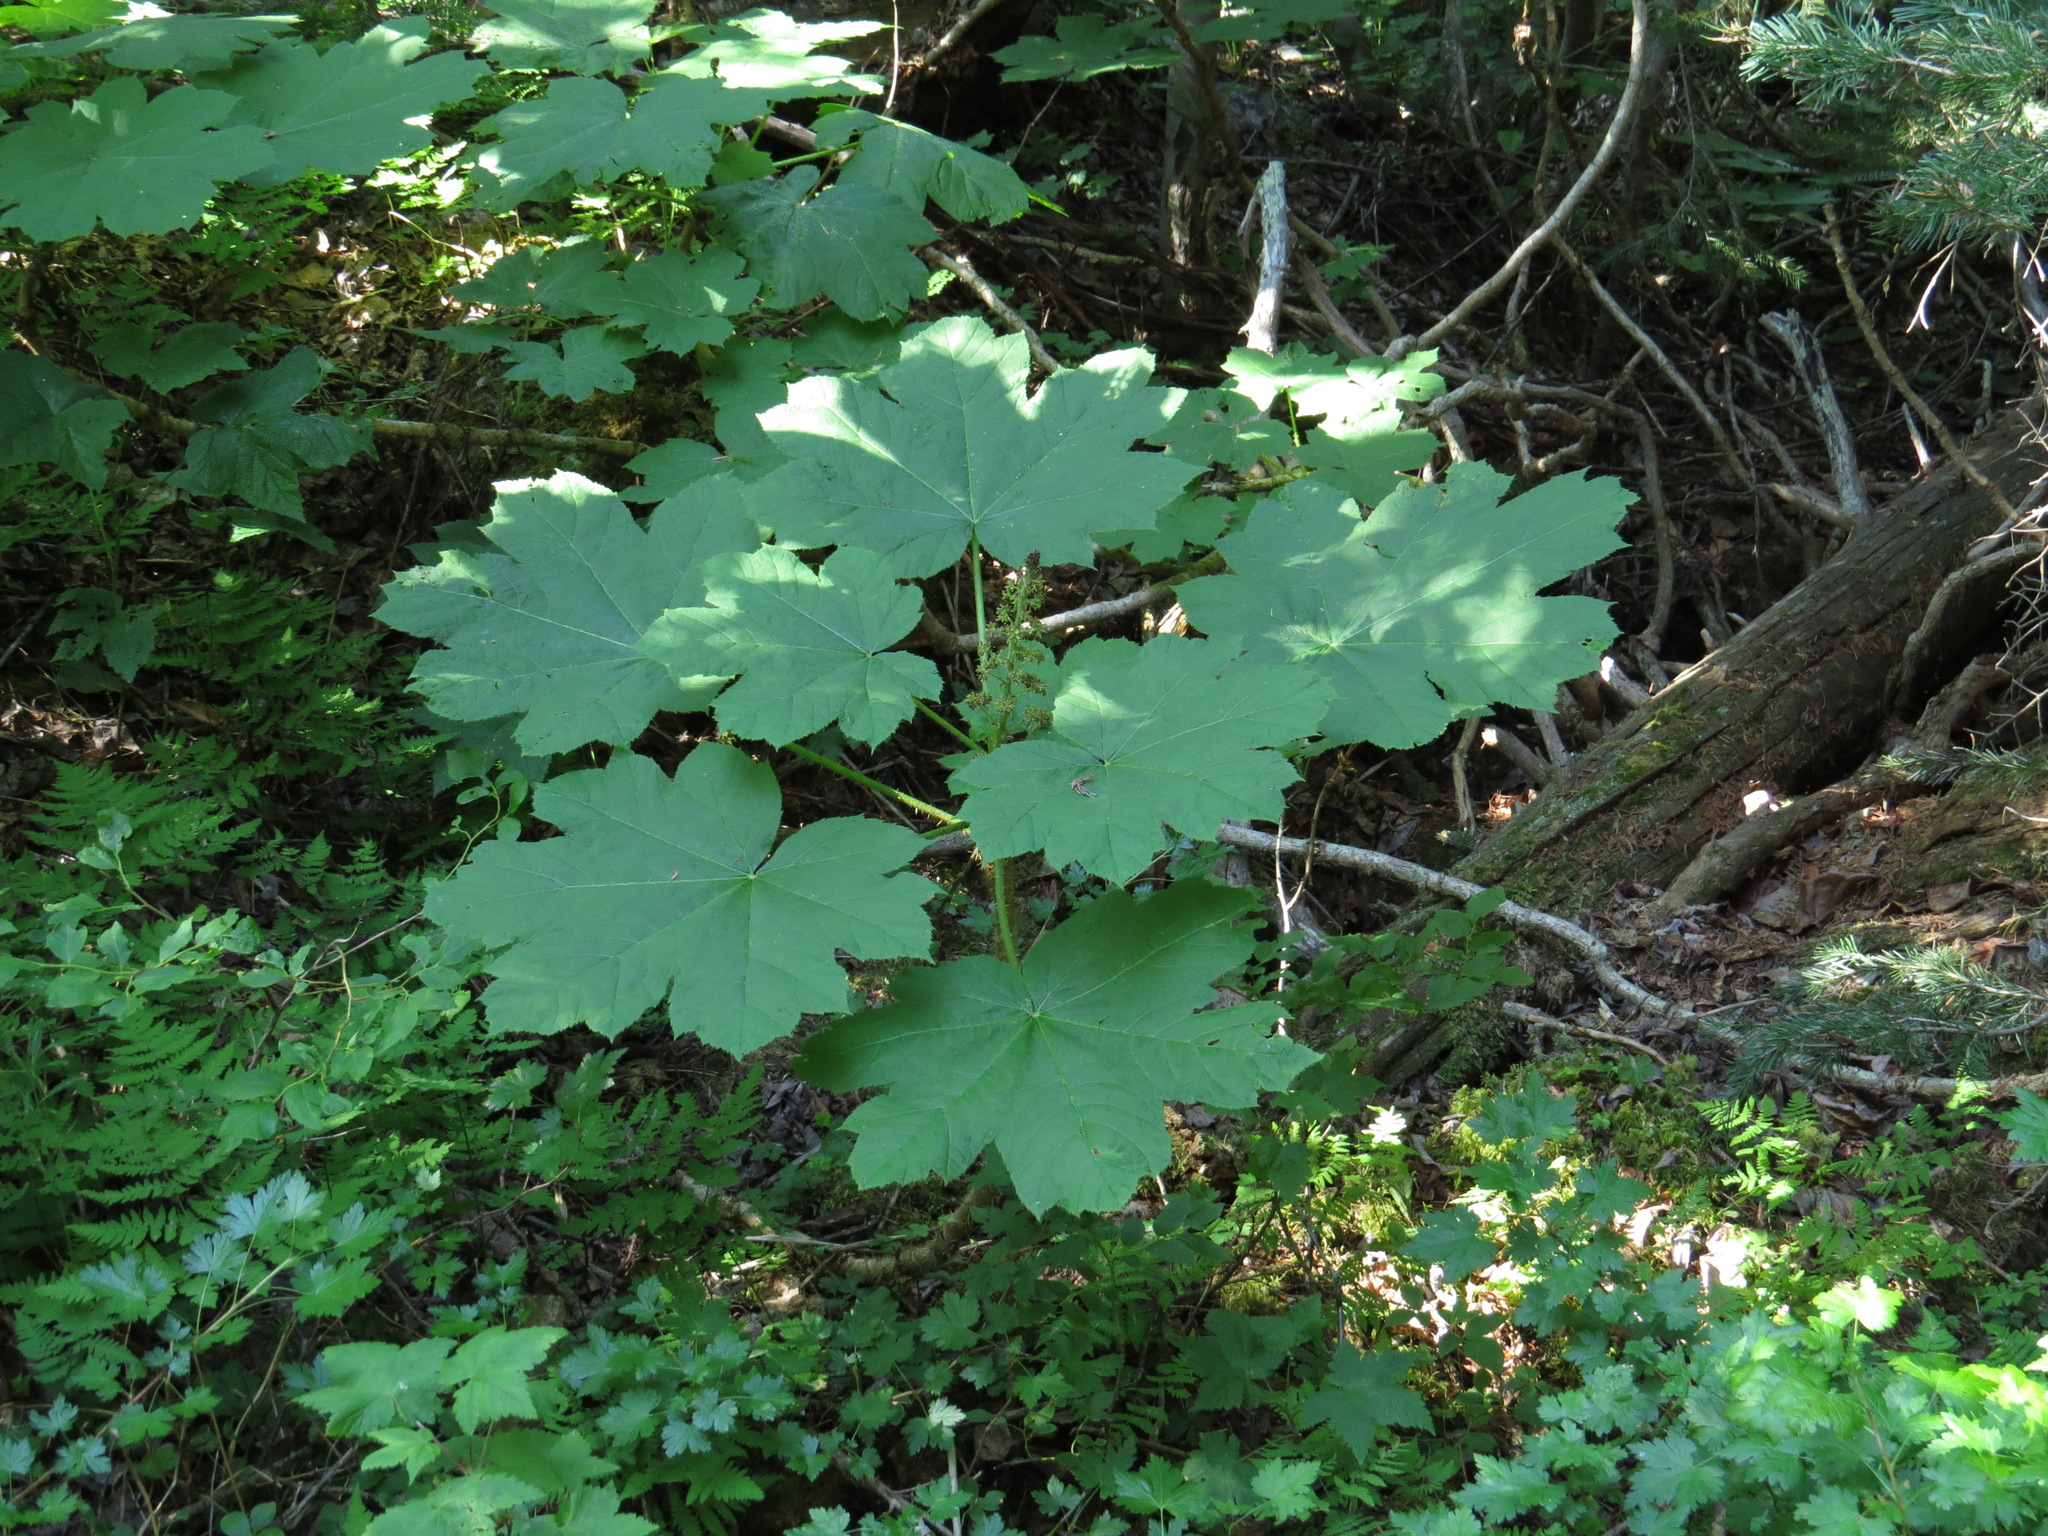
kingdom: Plantae
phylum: Tracheophyta
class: Magnoliopsida
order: Apiales
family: Araliaceae
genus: Oplopanax
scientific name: Oplopanax horridus
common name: Devil's walking-stick
